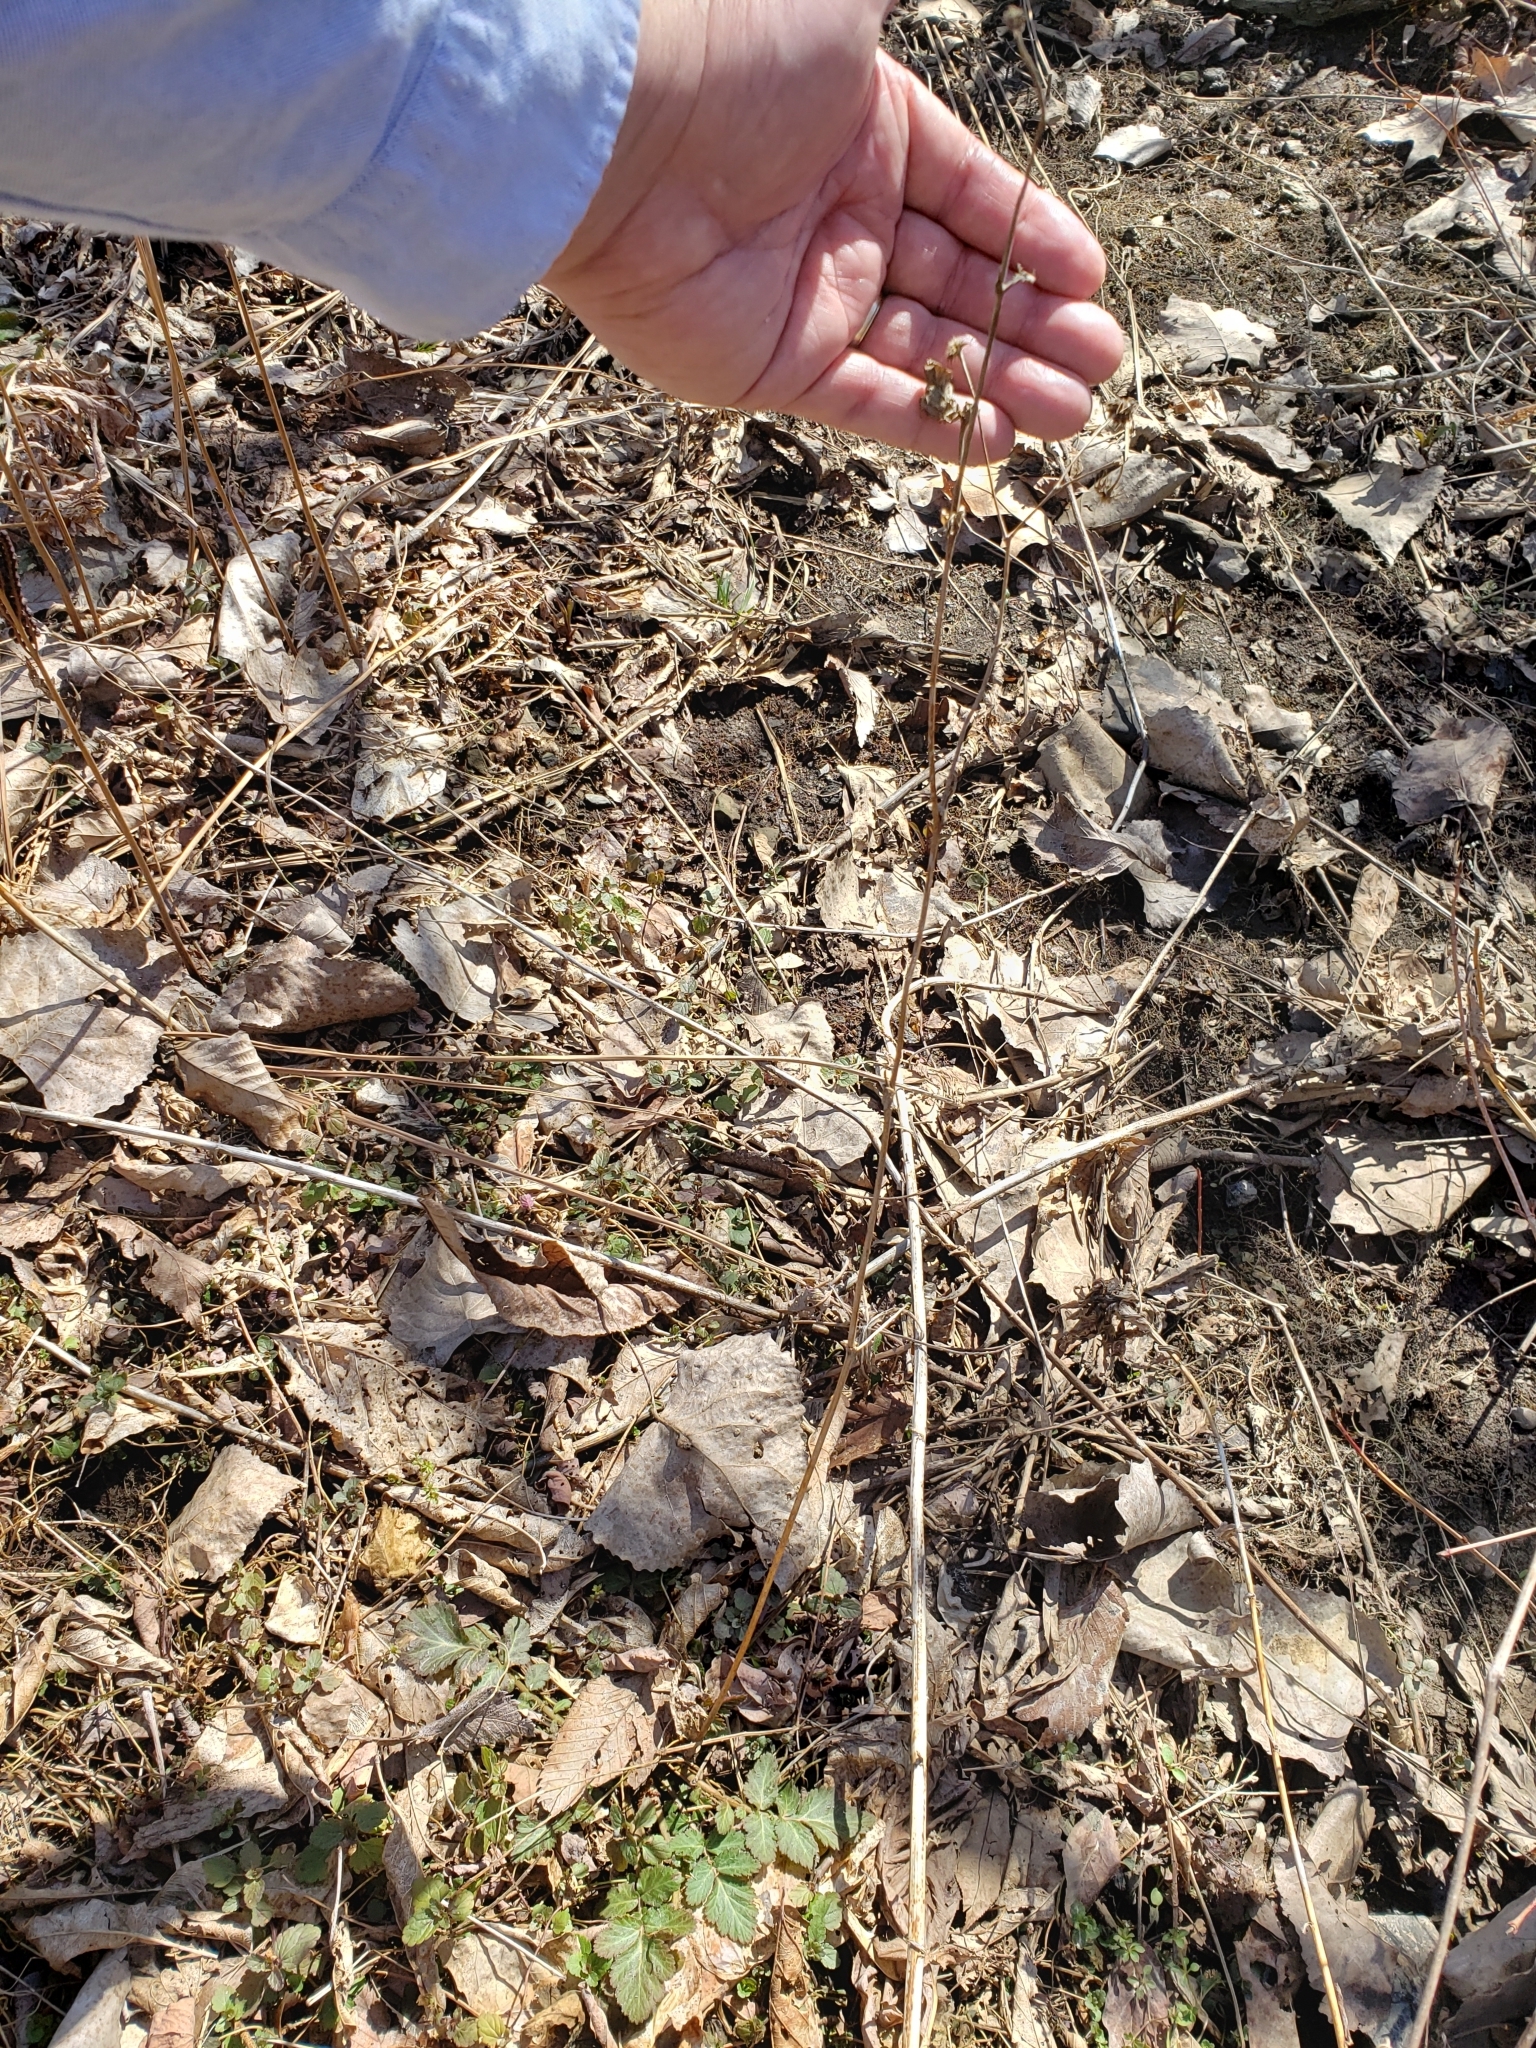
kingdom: Plantae
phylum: Tracheophyta
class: Magnoliopsida
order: Rosales
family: Rosaceae
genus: Geum
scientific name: Geum canadense
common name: White avens
